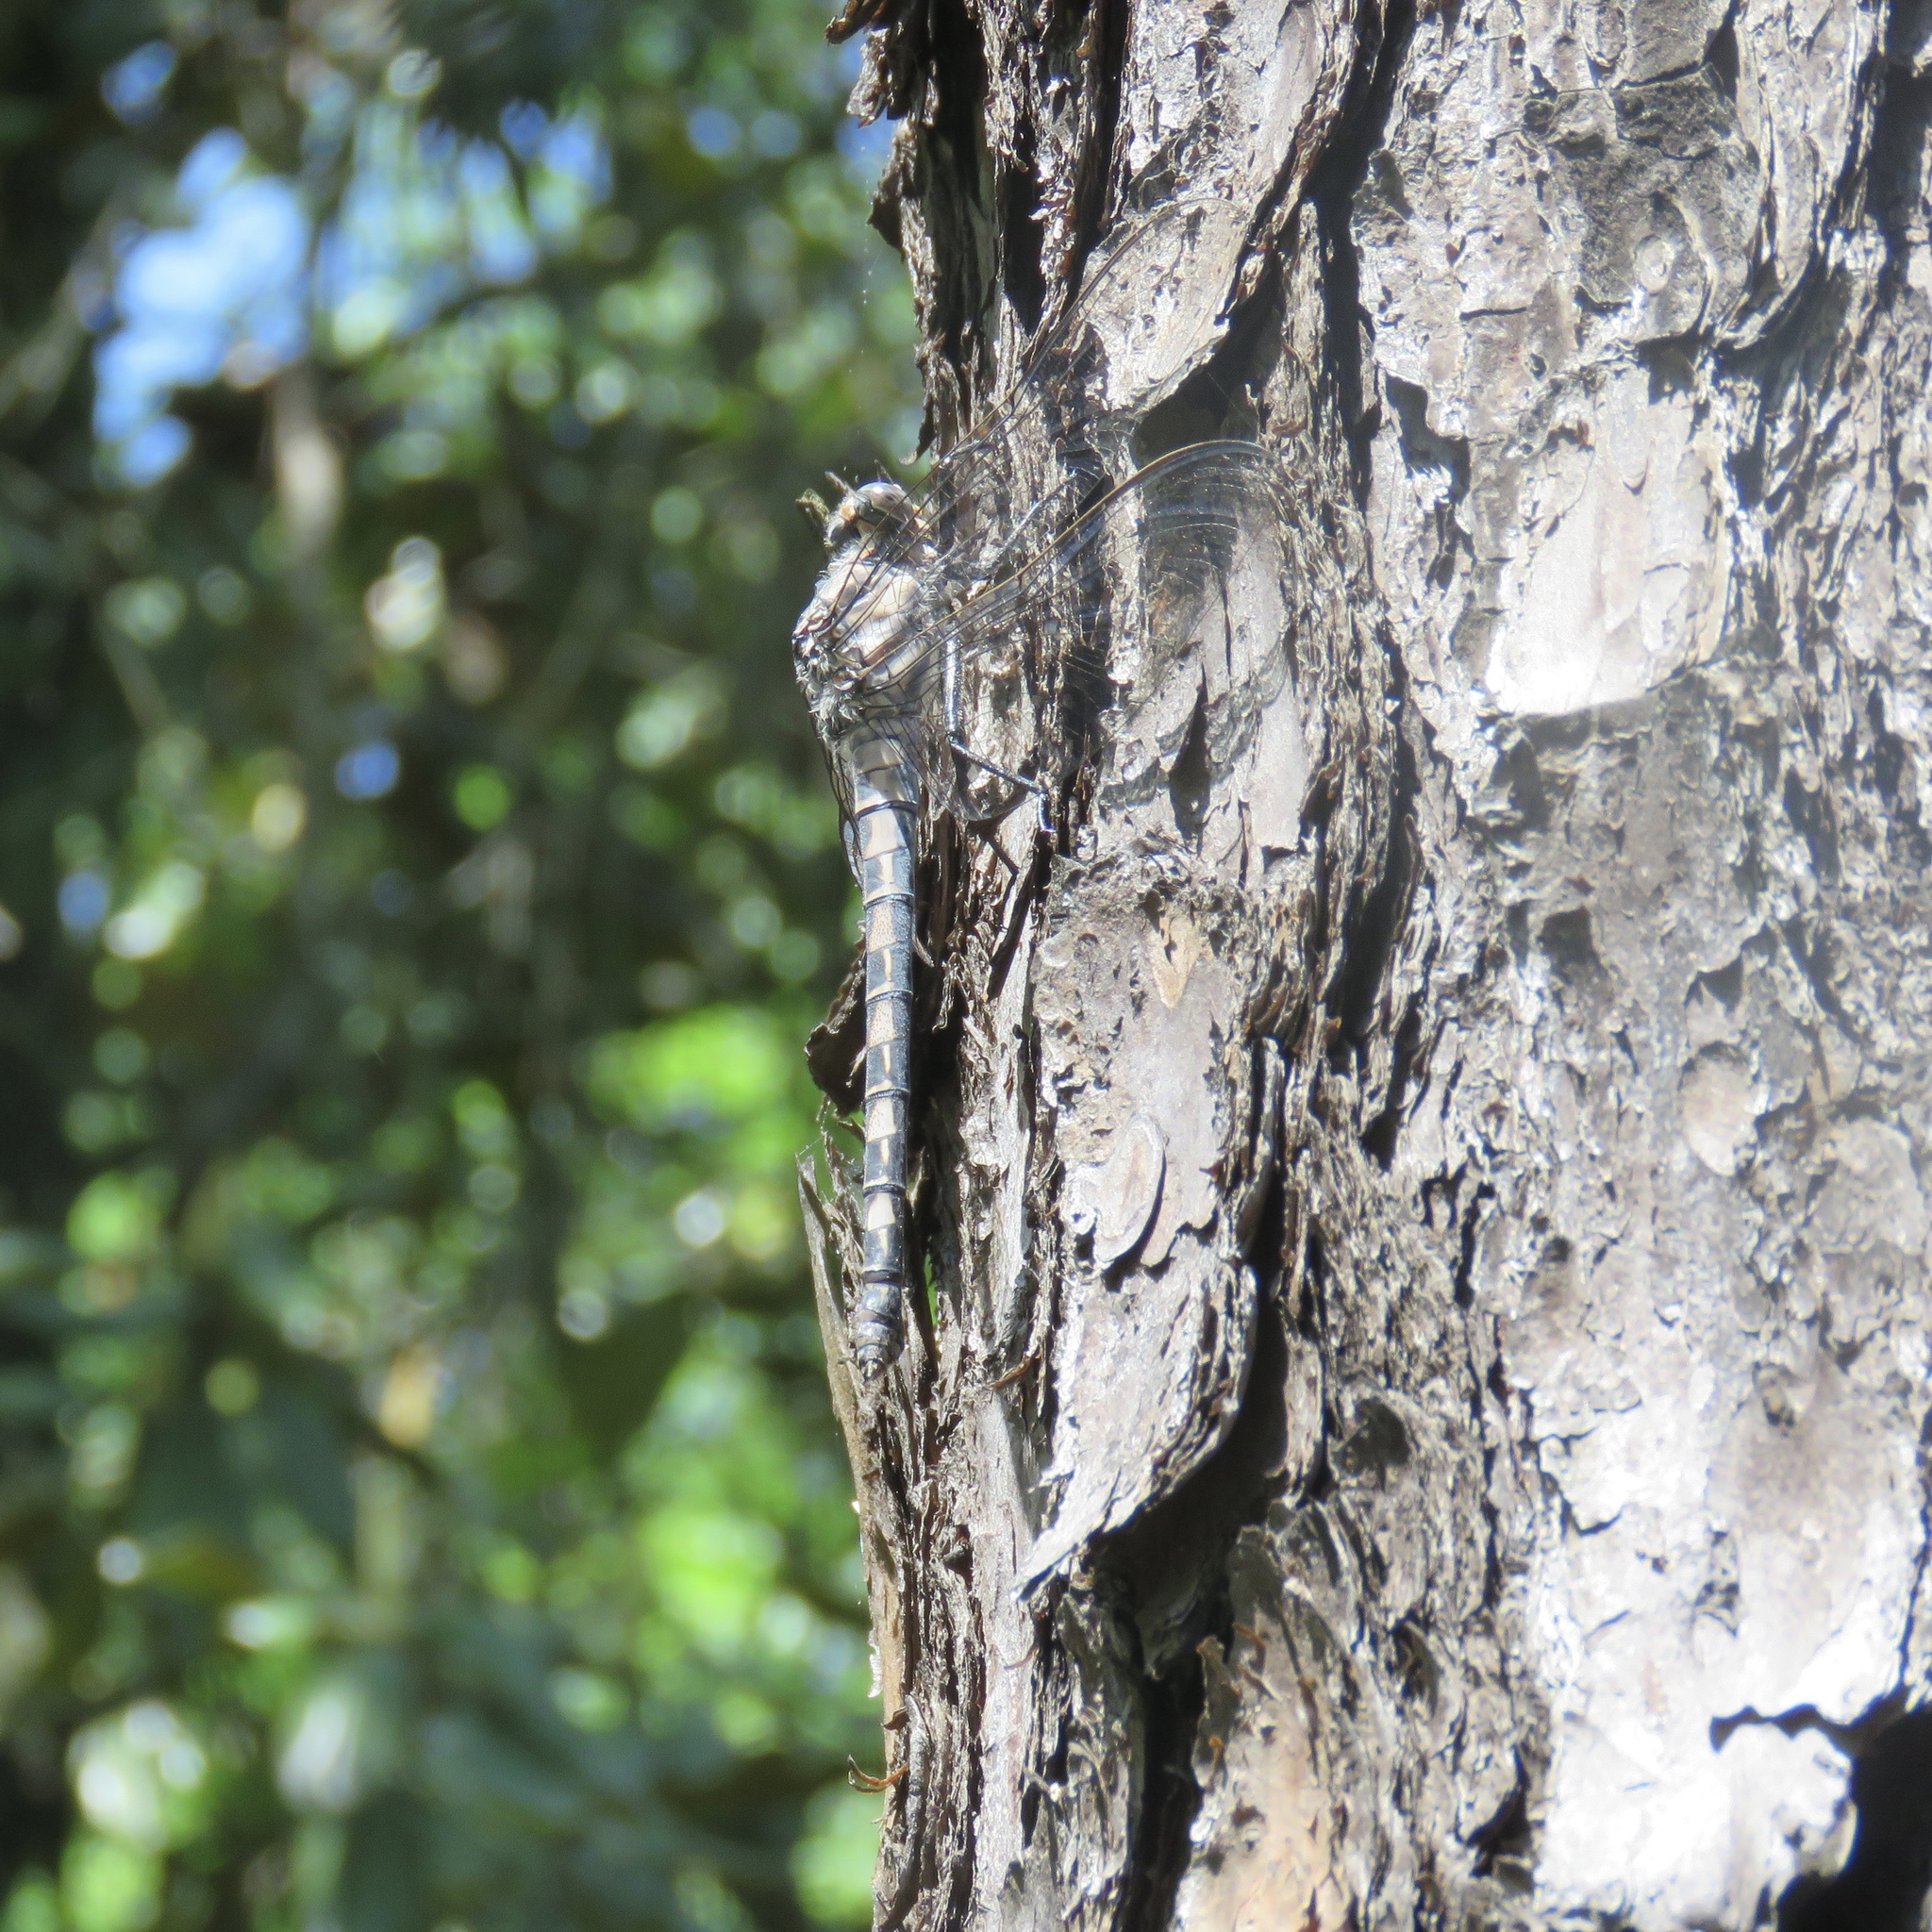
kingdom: Animalia
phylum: Arthropoda
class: Insecta
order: Odonata
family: Petaluridae
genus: Tachopteryx
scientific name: Tachopteryx thoreyi
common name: Gray petaltail
